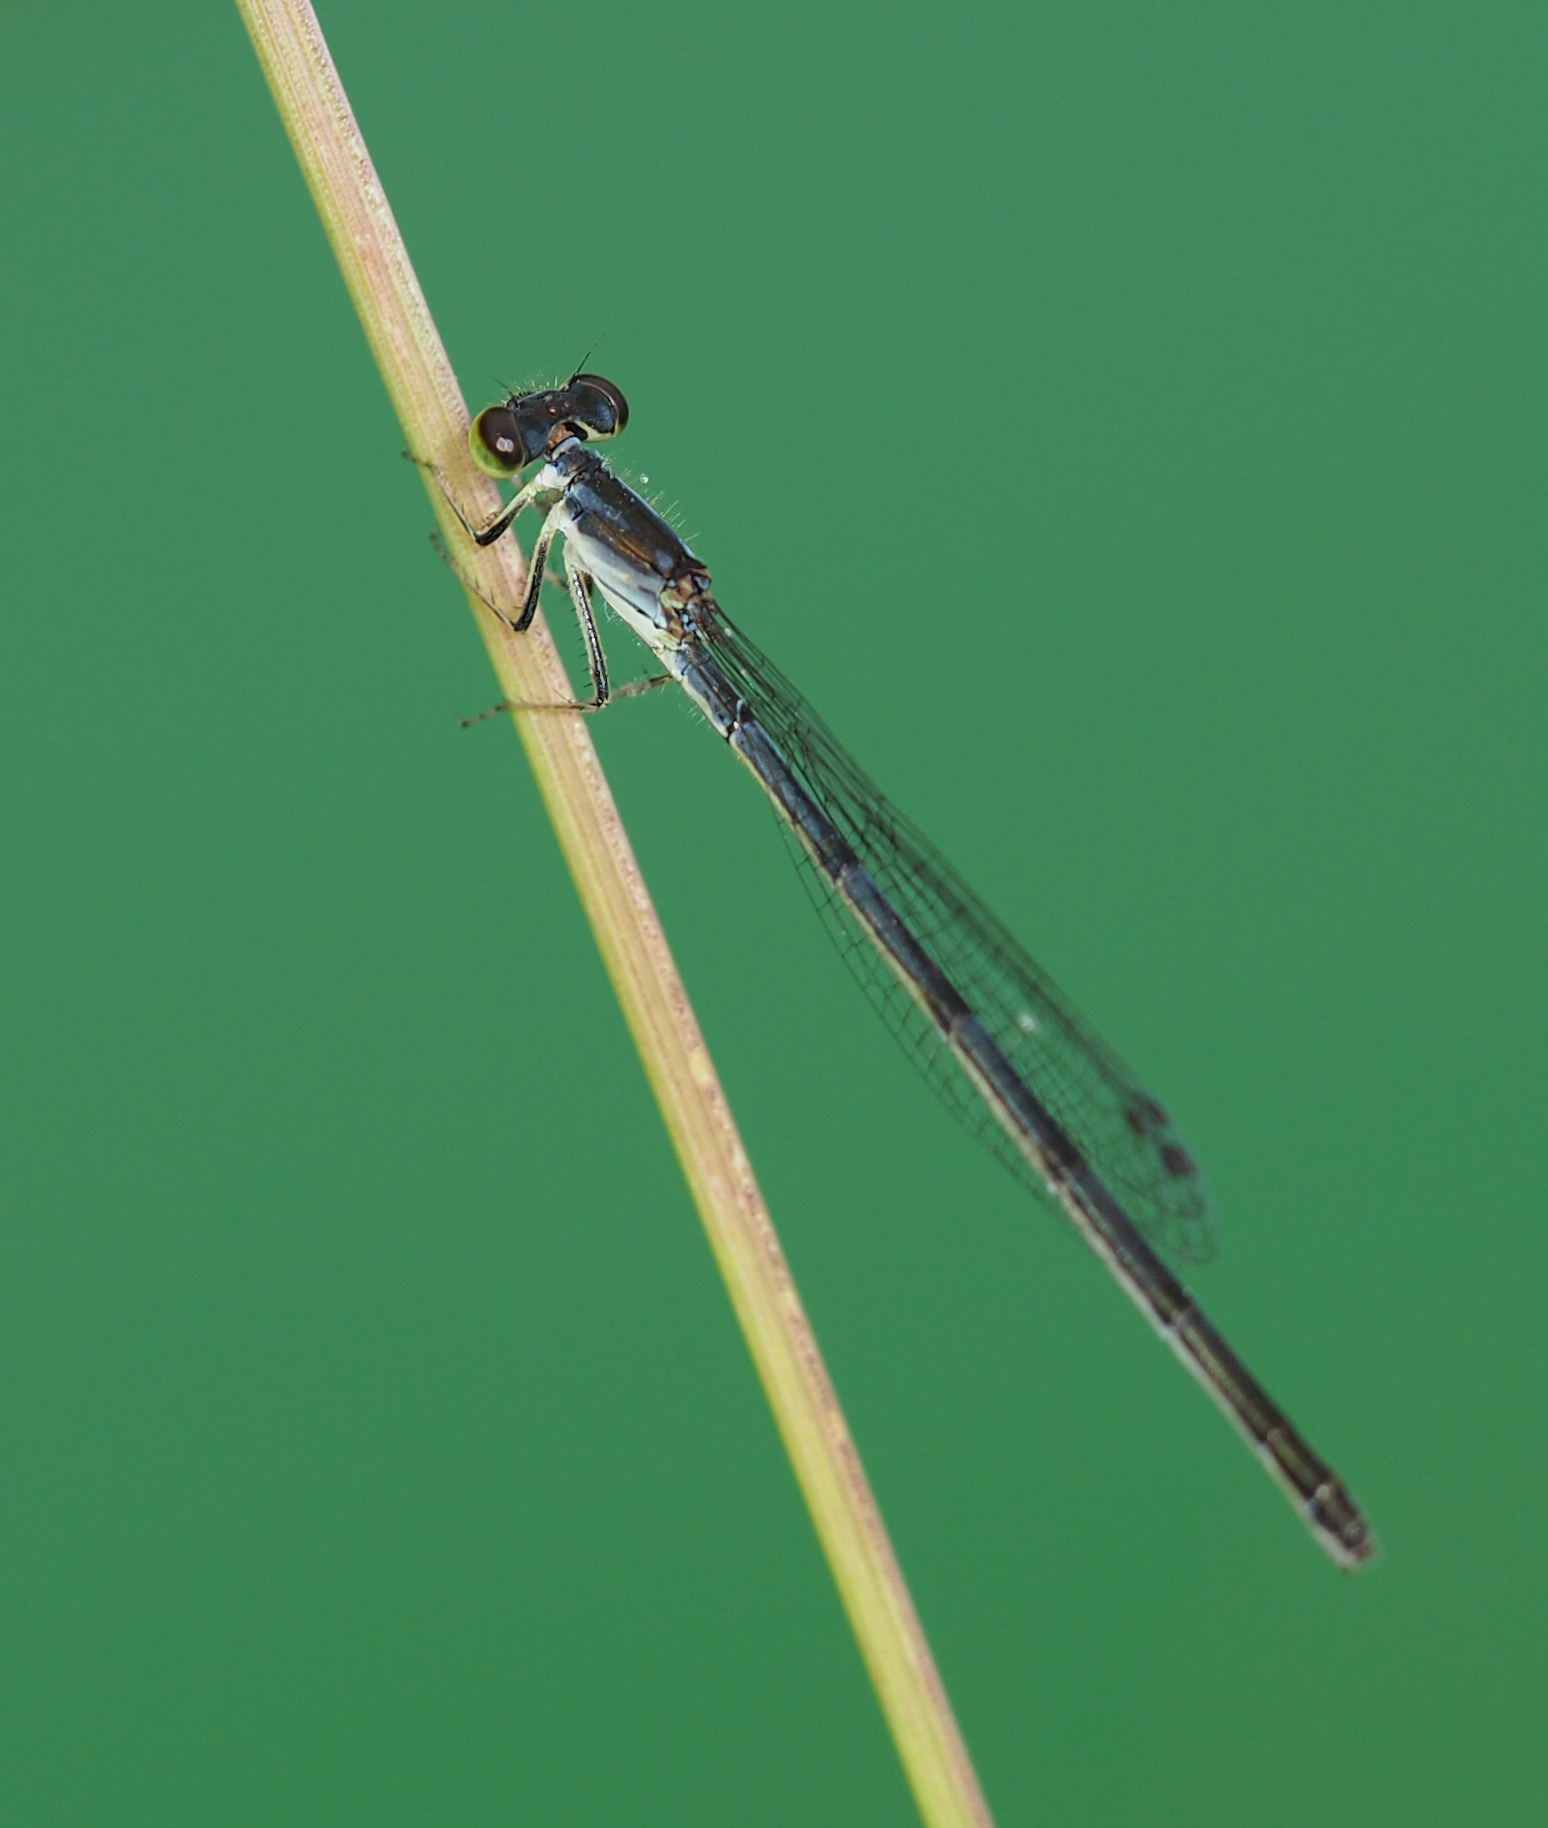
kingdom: Animalia
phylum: Arthropoda
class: Insecta
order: Odonata
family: Coenagrionidae
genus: Ischnura
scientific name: Ischnura posita
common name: Fragile forktail
